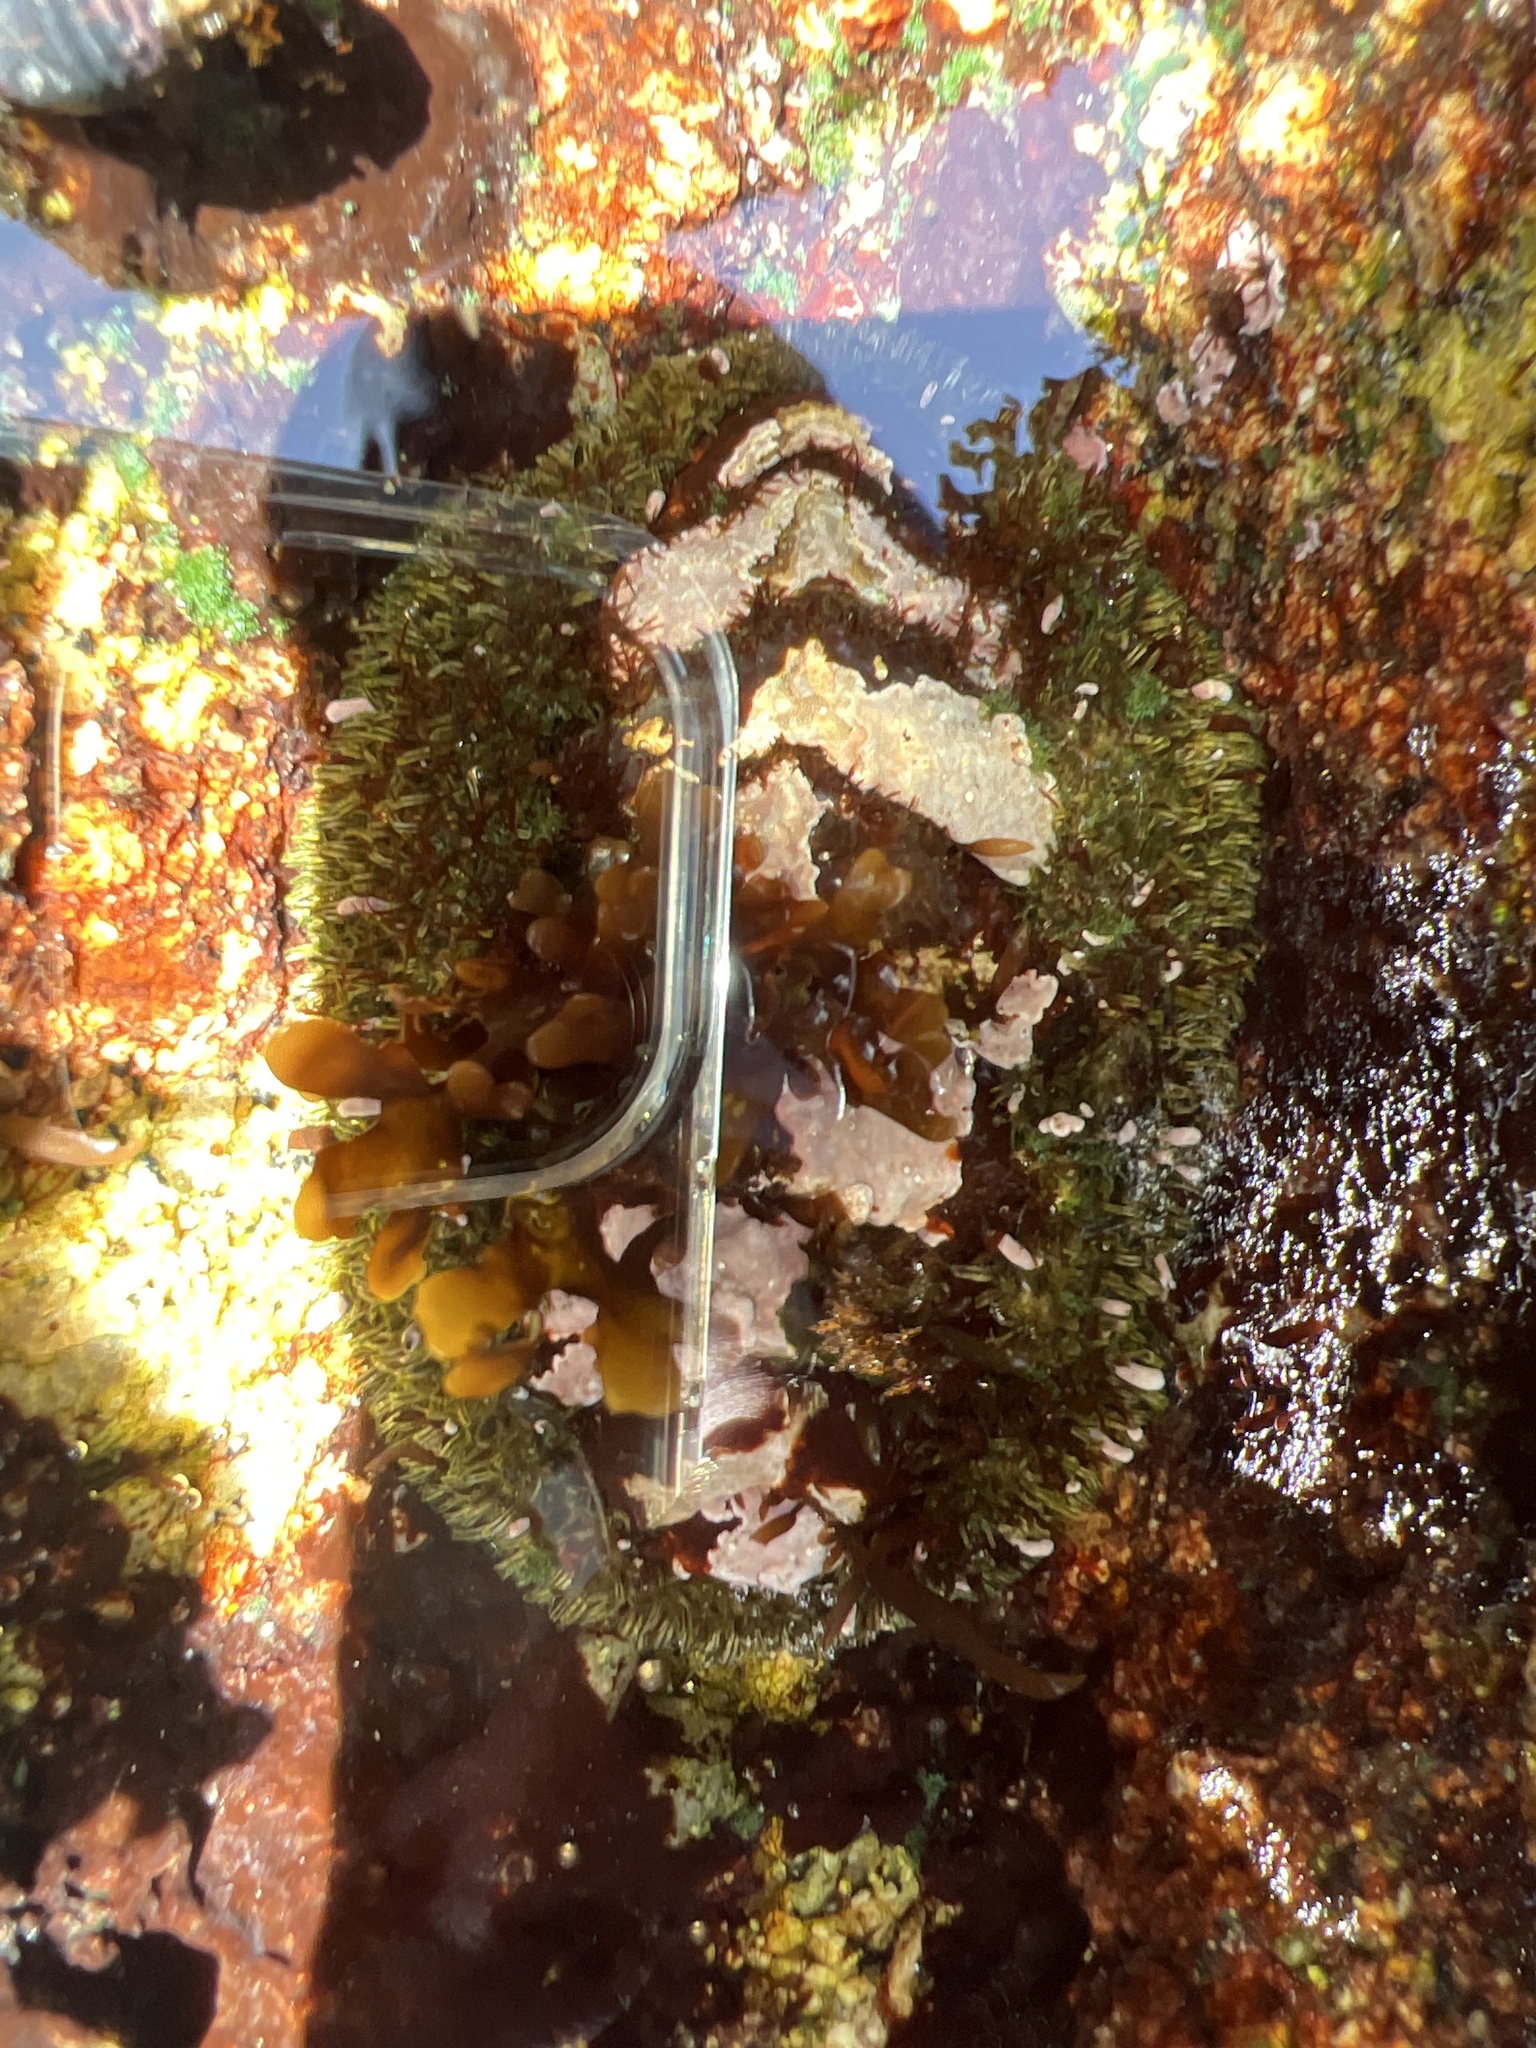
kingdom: Animalia
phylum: Mollusca
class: Polyplacophora
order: Chitonida
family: Mopaliidae
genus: Mopalia
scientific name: Mopalia muscosa
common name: Mossy chiton
